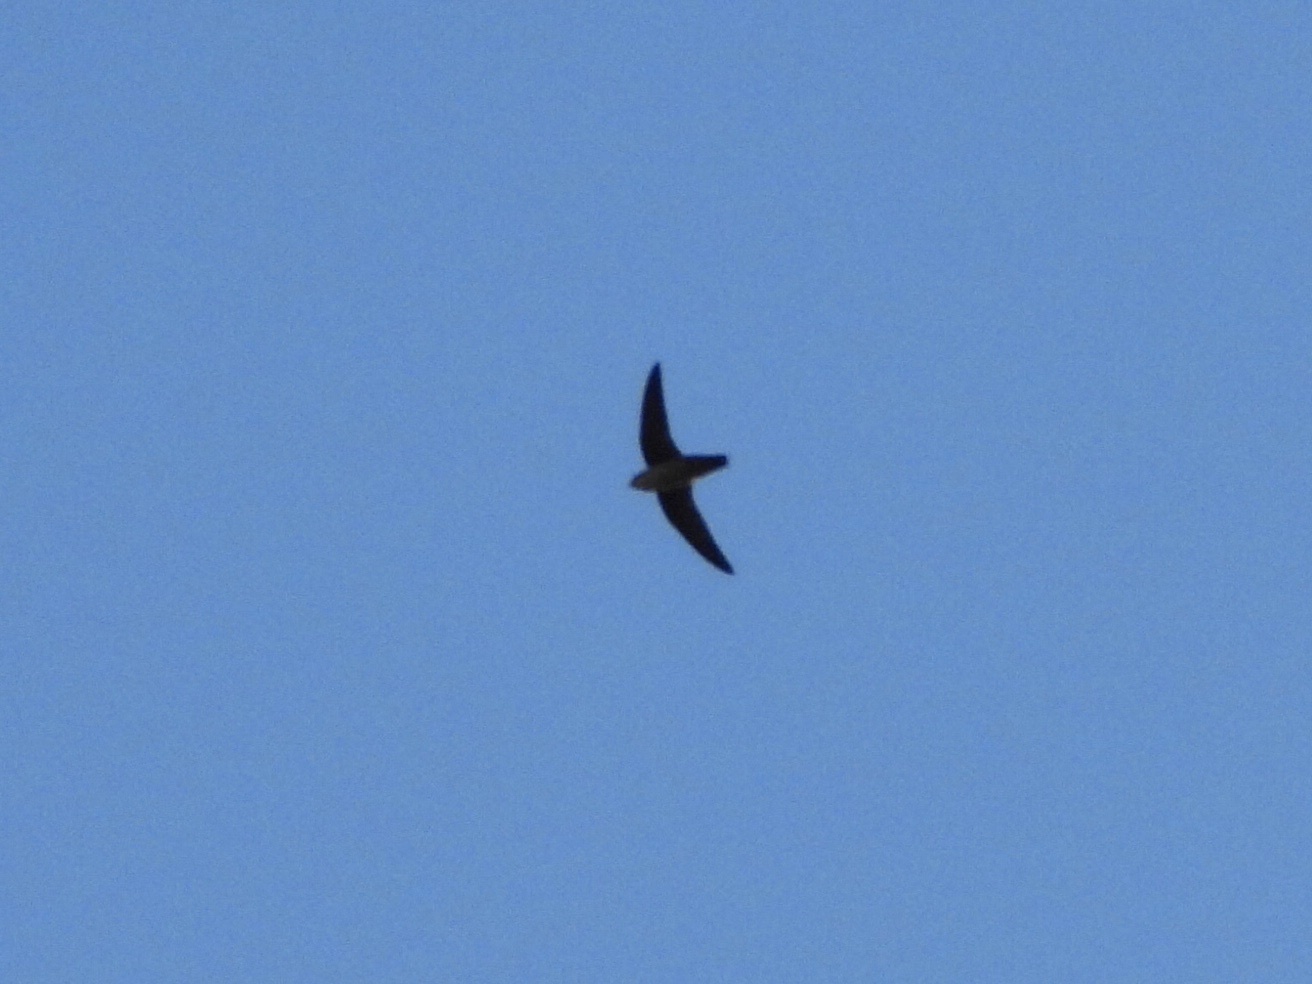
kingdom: Animalia
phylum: Chordata
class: Aves
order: Apodiformes
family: Apodidae
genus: Chaetura
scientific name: Chaetura vauxi
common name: Vaux's swift
